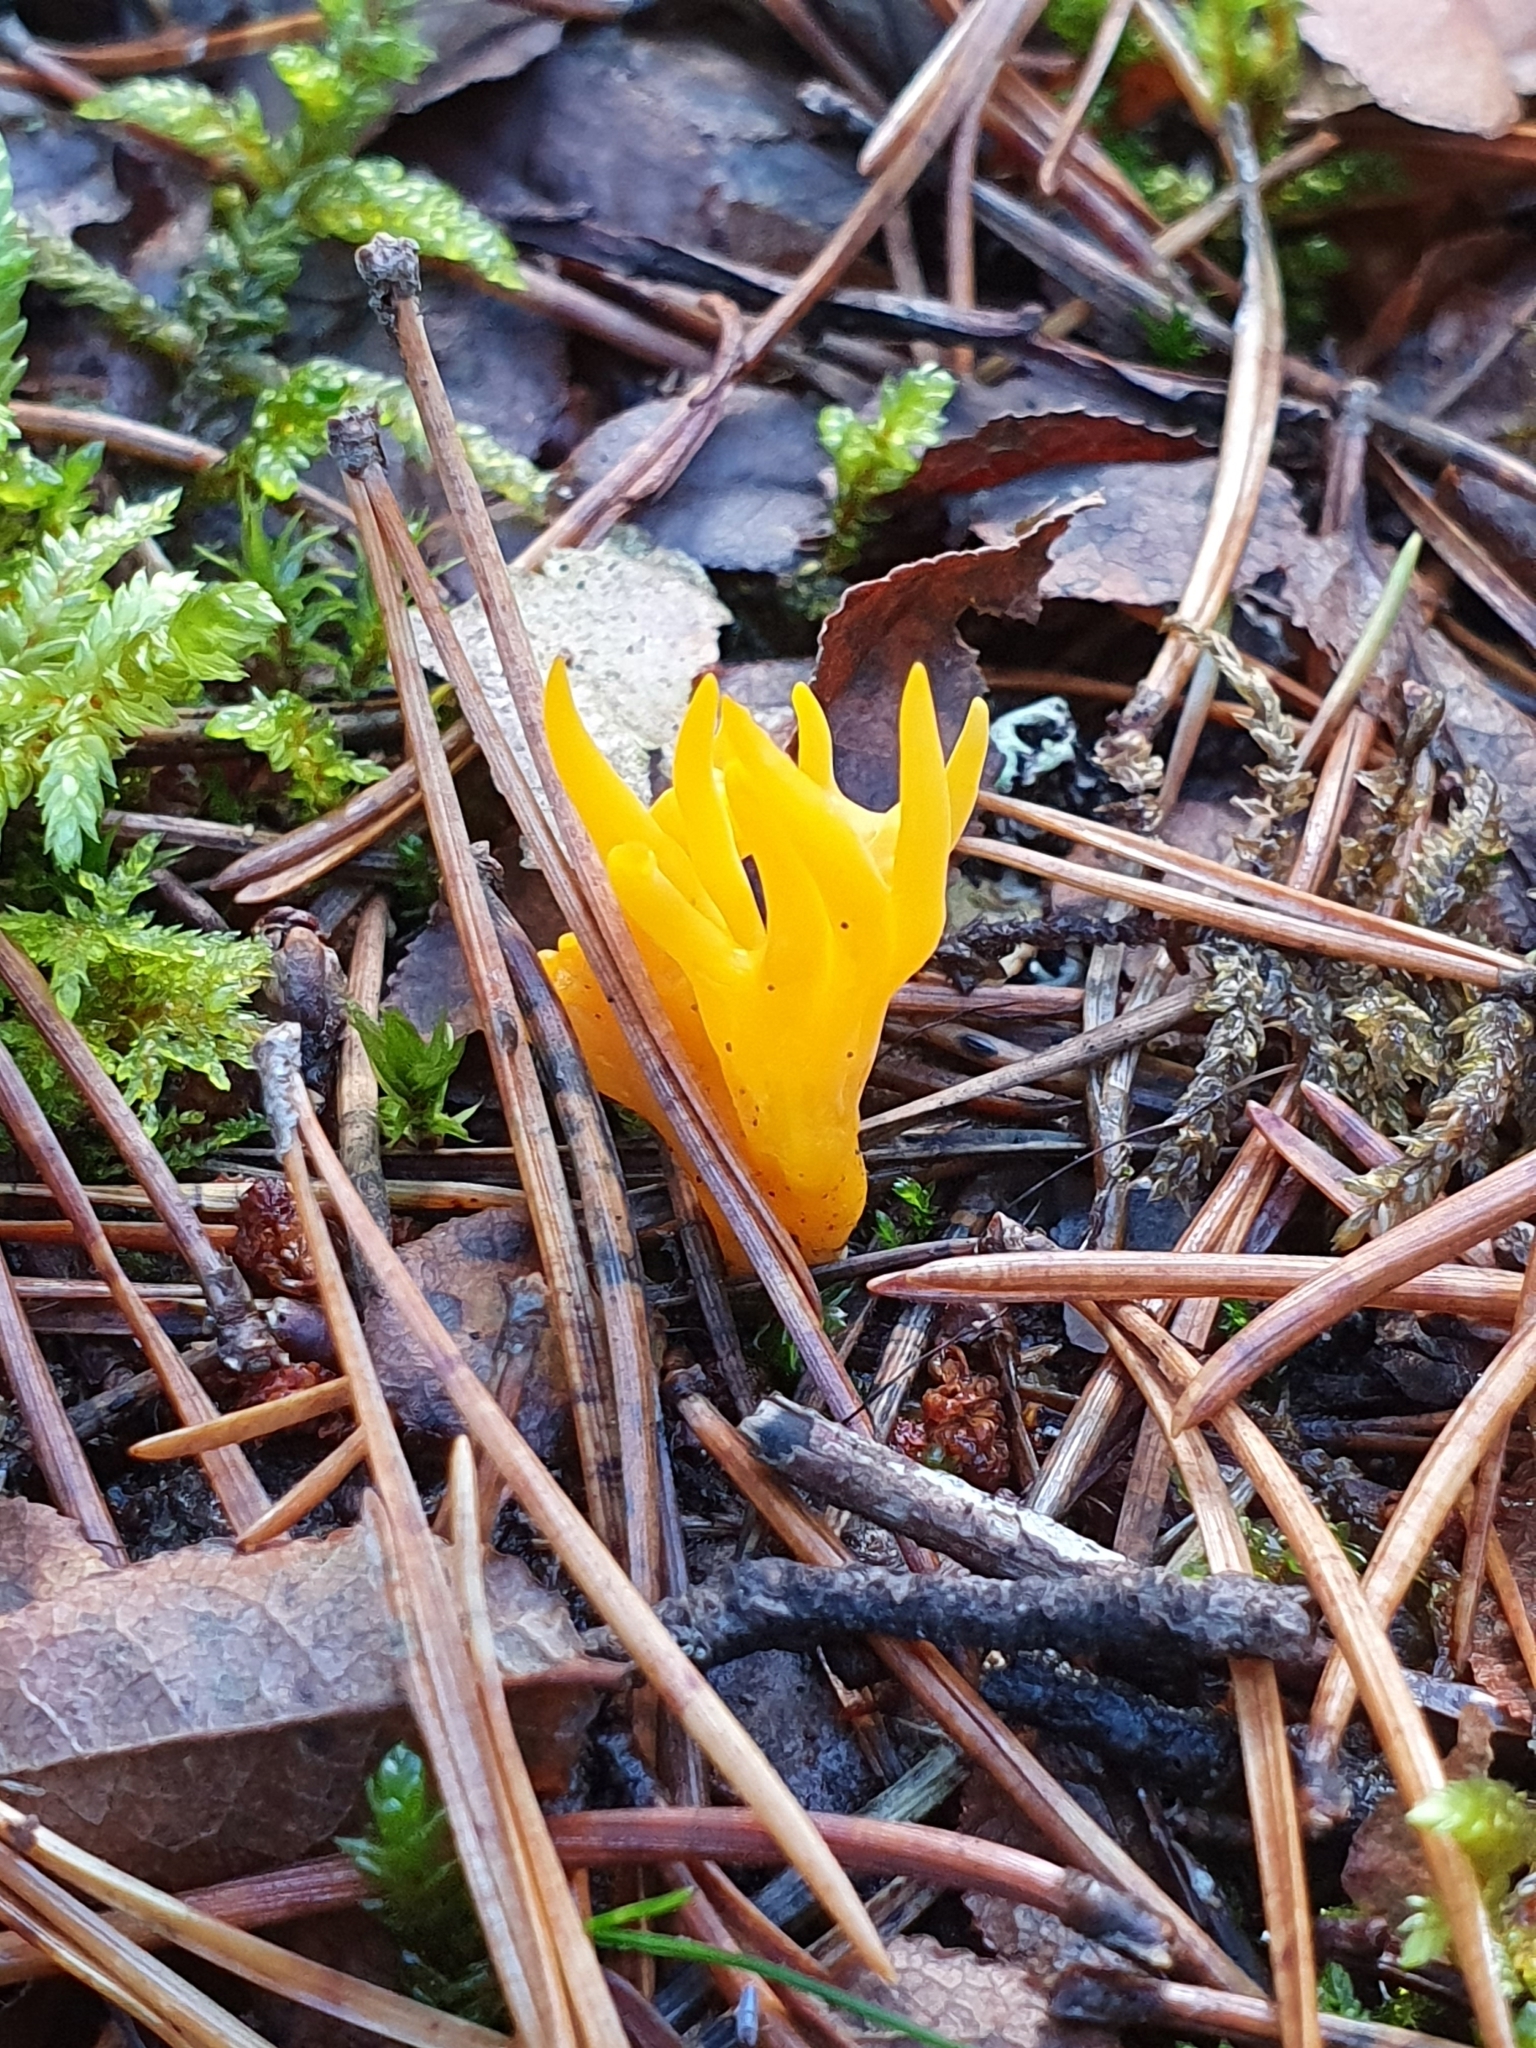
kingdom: Fungi
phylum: Basidiomycota
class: Dacrymycetes
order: Dacrymycetales
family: Dacrymycetaceae
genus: Calocera
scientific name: Calocera viscosa
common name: Yellow stagshorn
